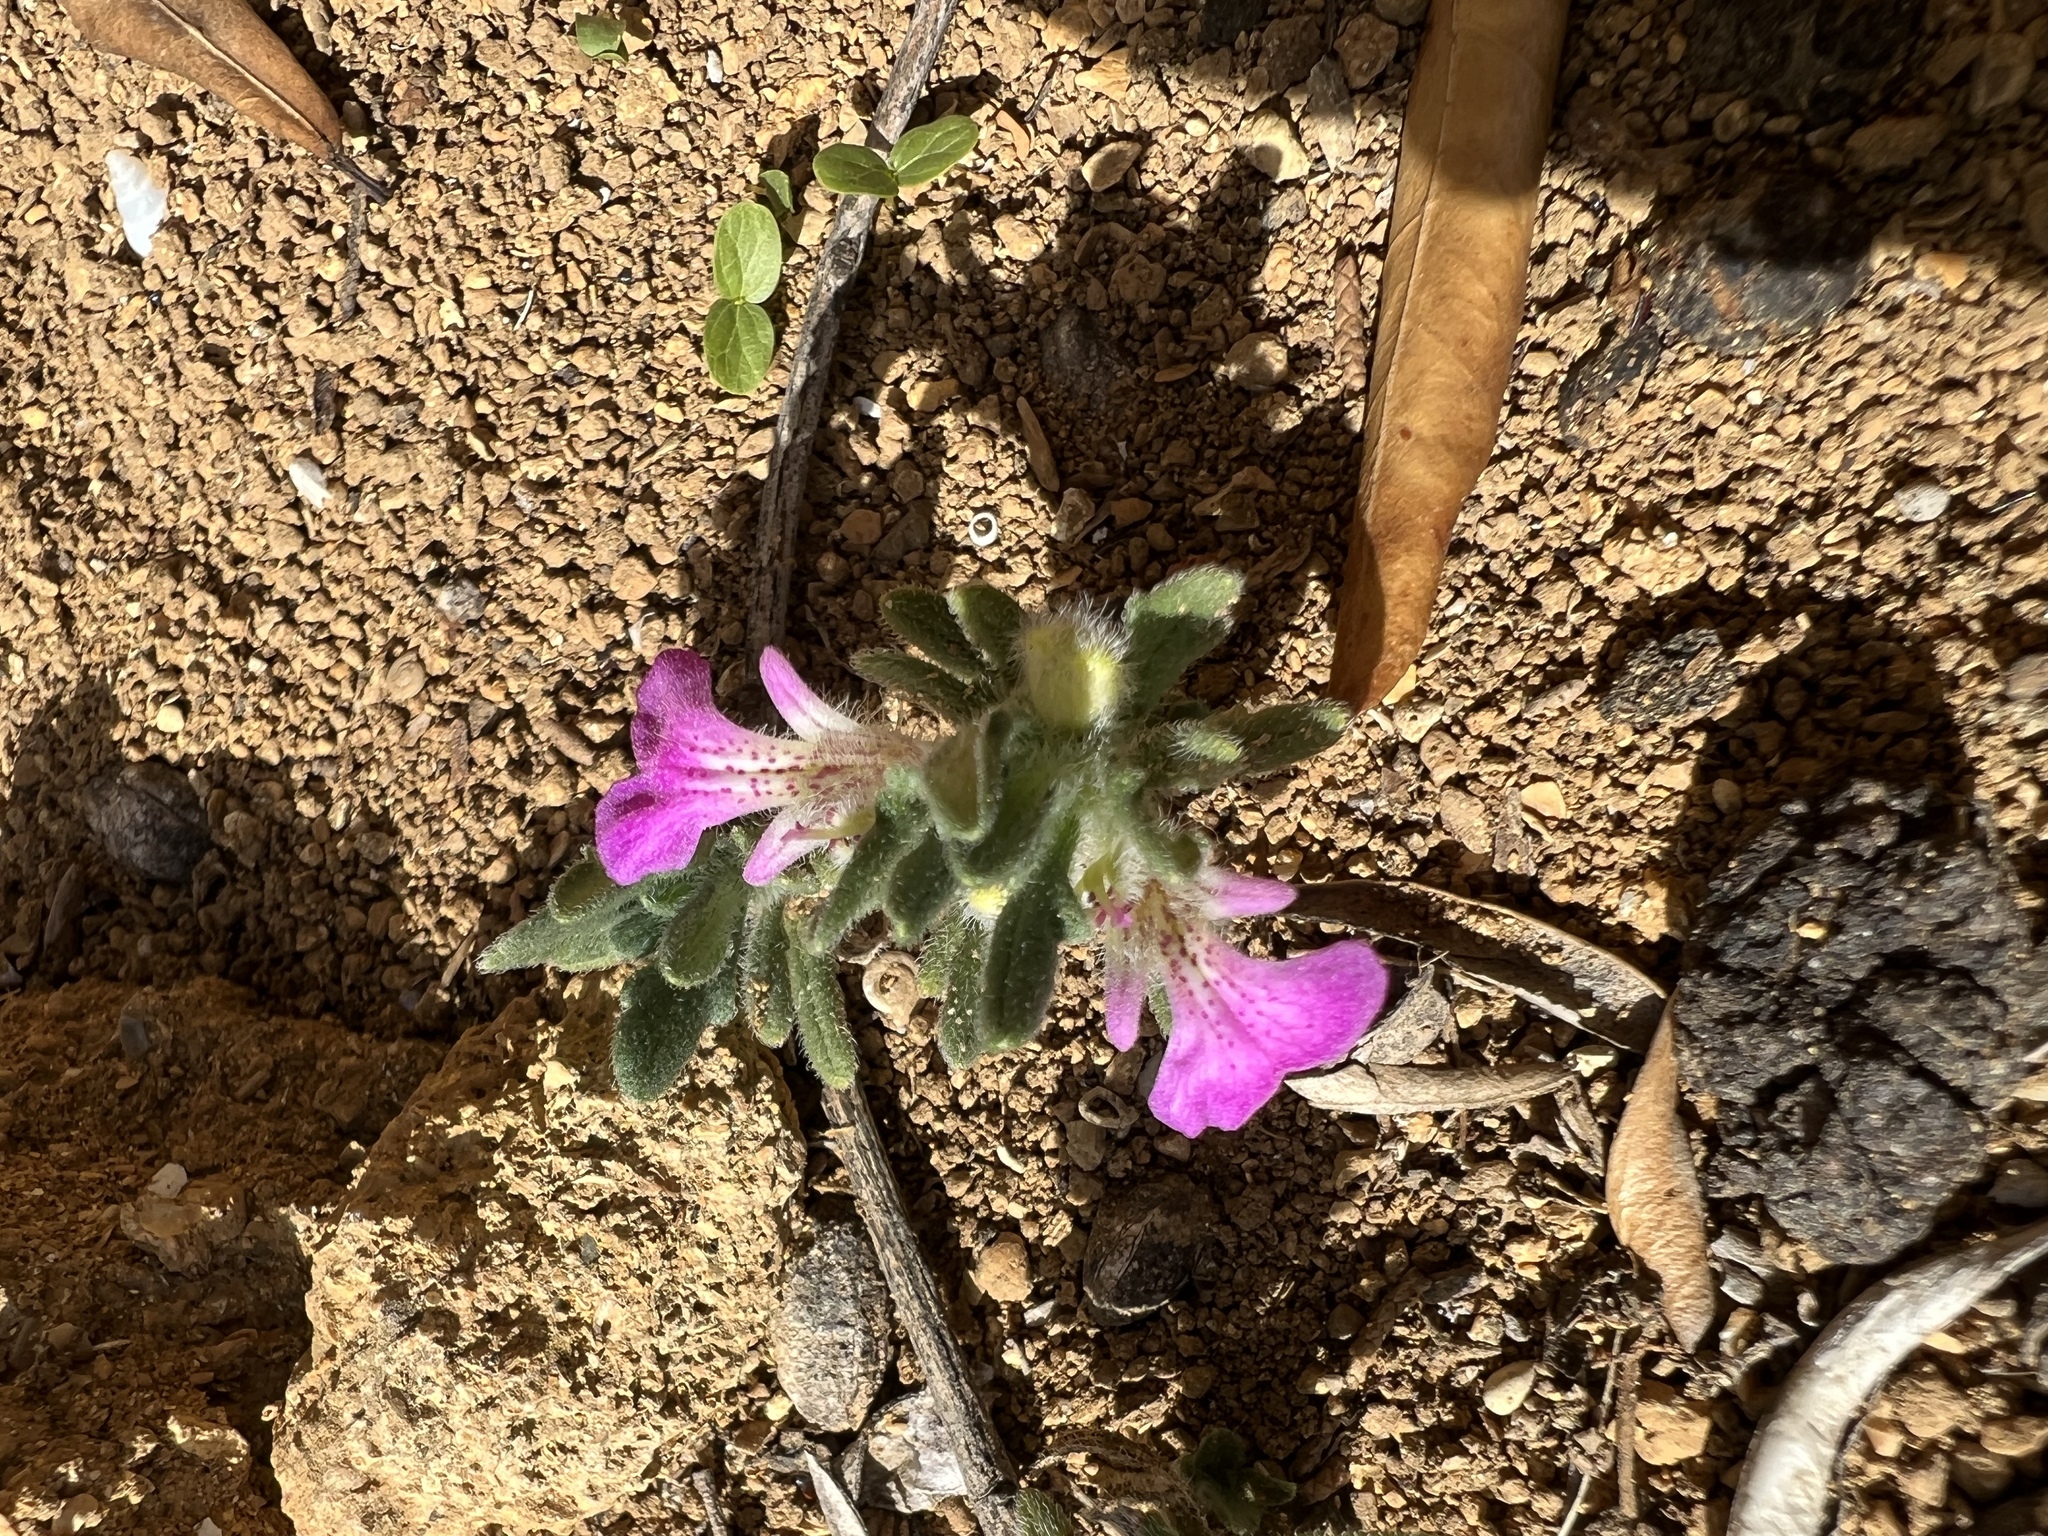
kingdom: Plantae
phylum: Tracheophyta
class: Magnoliopsida
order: Lamiales
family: Lamiaceae
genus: Ajuga
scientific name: Ajuga iva
